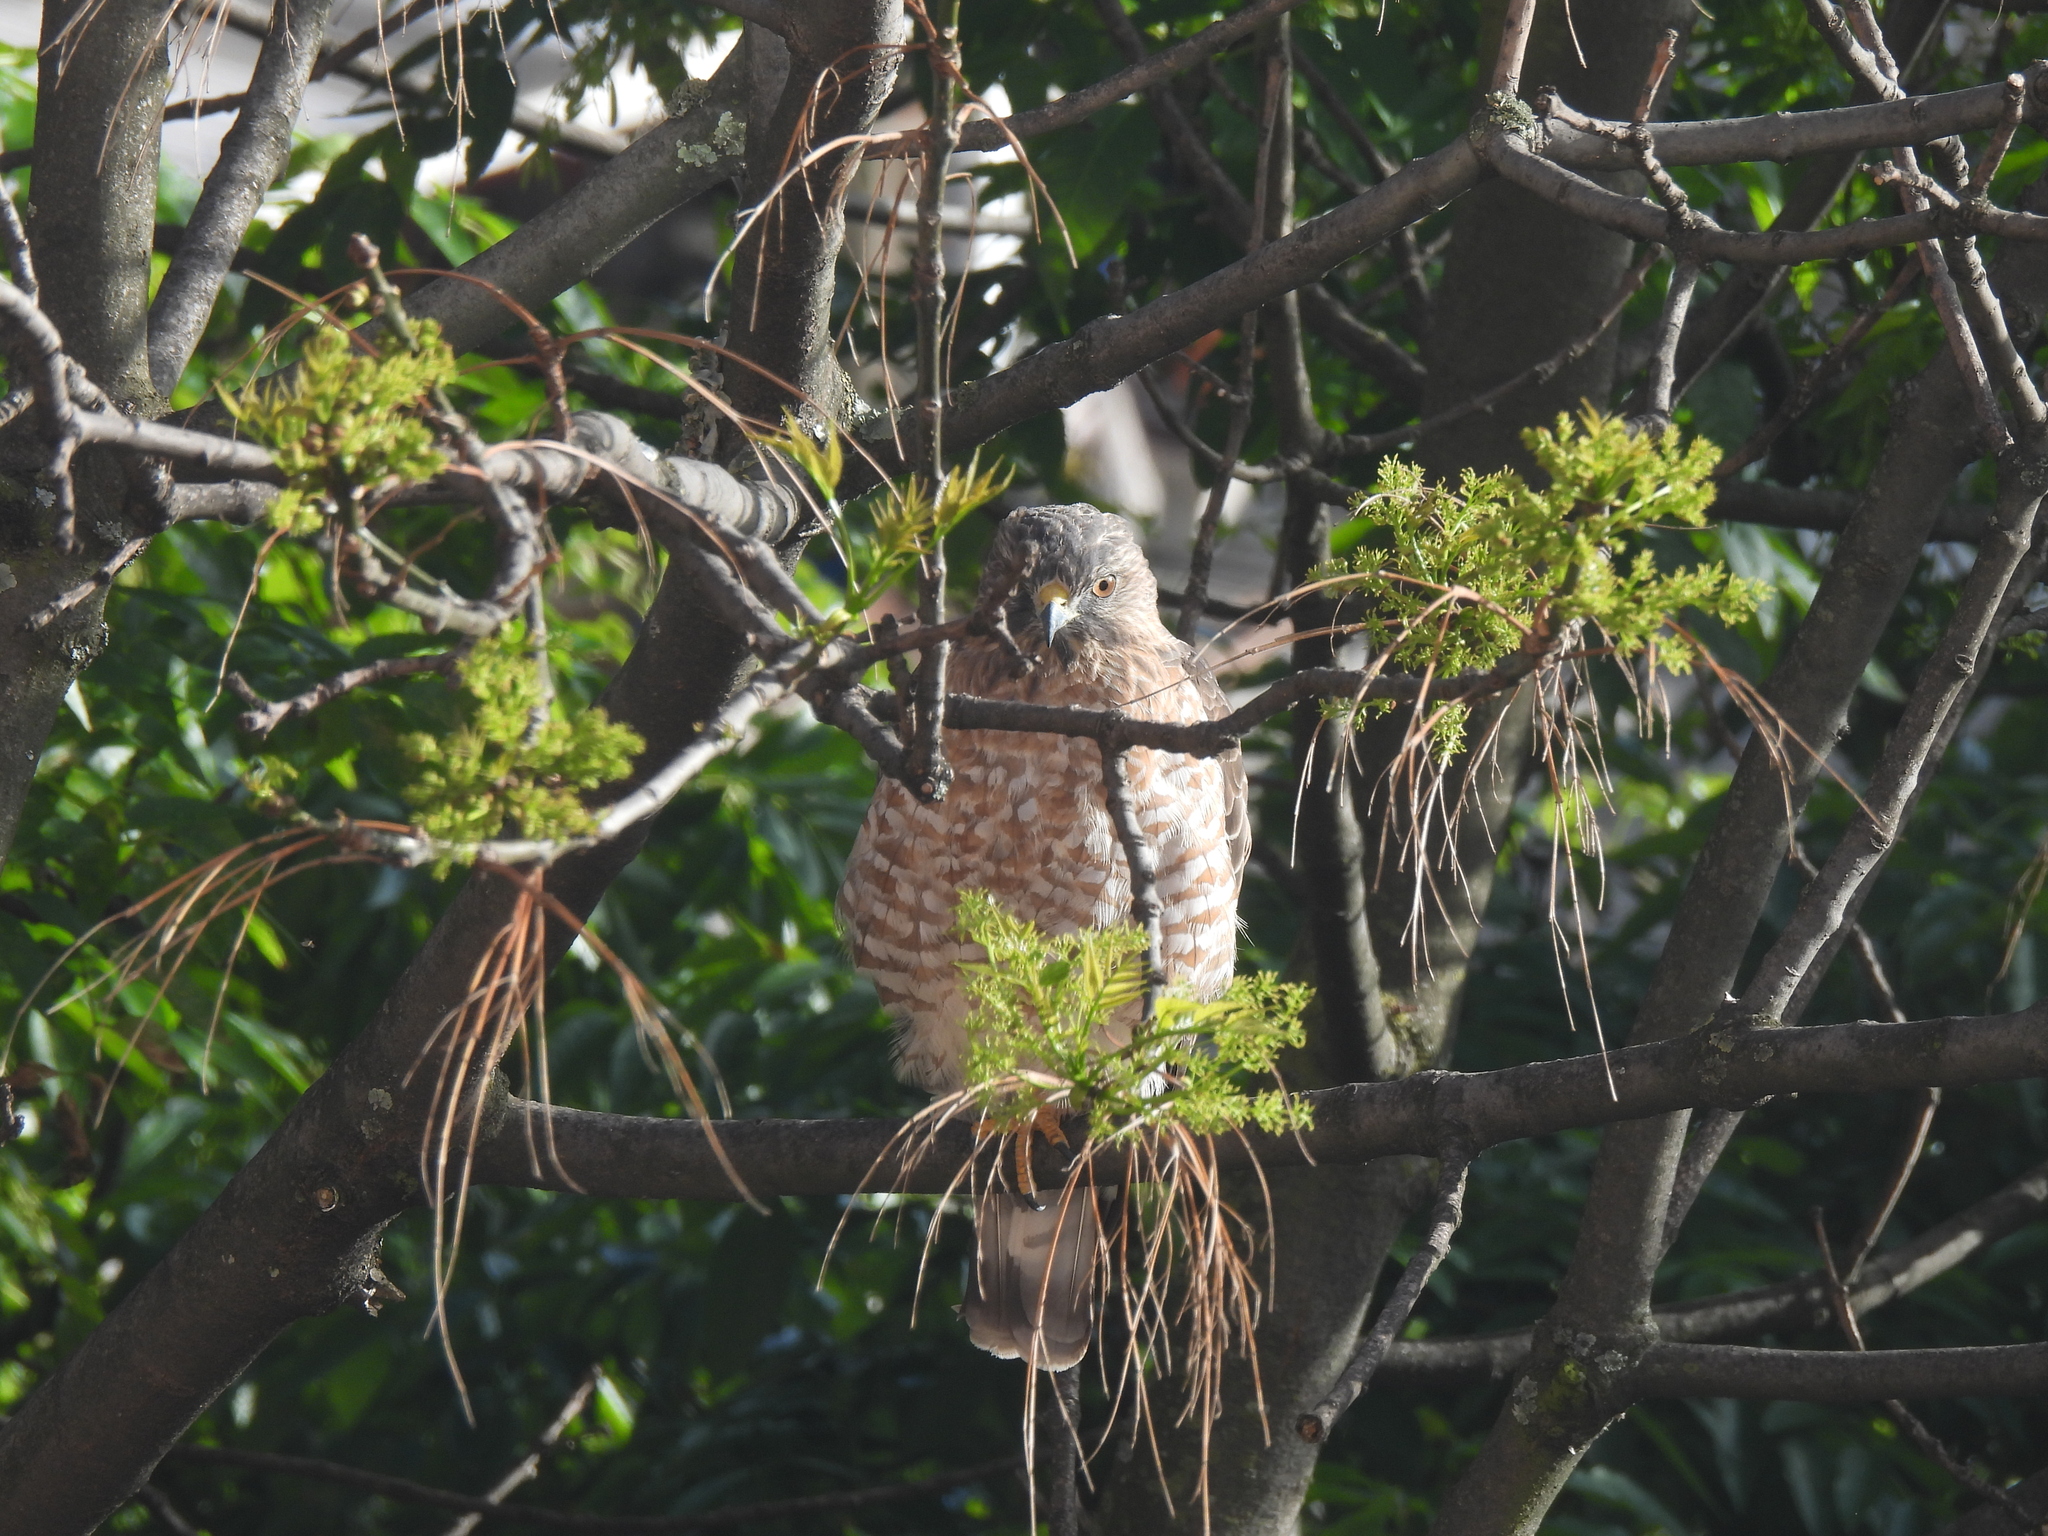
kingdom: Animalia
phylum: Chordata
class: Aves
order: Accipitriformes
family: Accipitridae
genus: Buteo
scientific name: Buteo platypterus
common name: Broad-winged hawk
